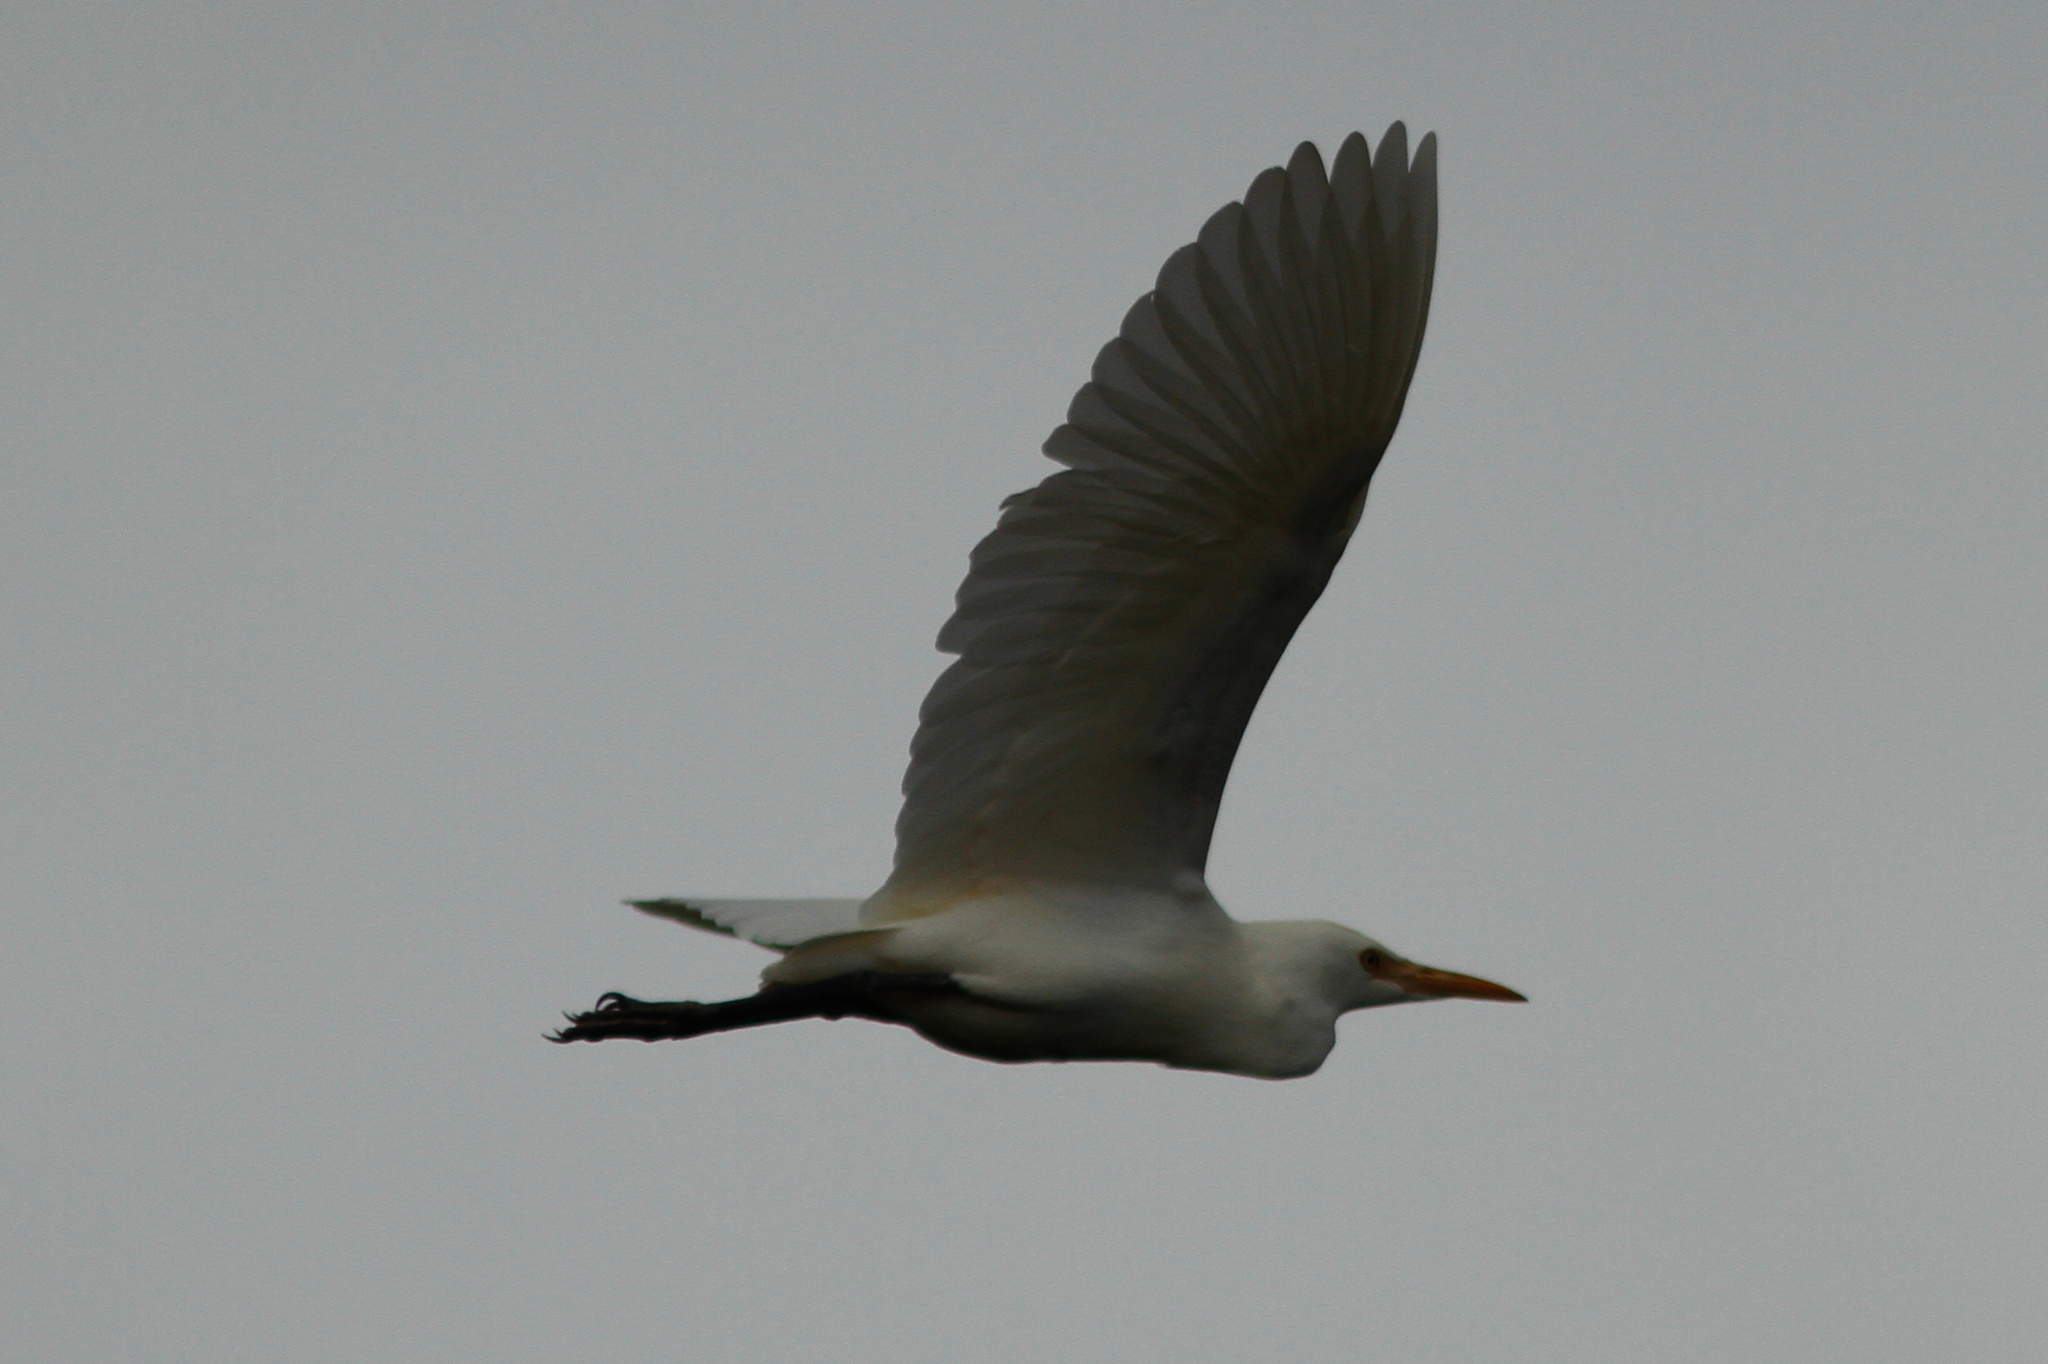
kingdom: Animalia
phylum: Chordata
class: Aves
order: Pelecaniformes
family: Ardeidae
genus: Bubulcus
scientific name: Bubulcus coromandus
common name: Eastern cattle egret
